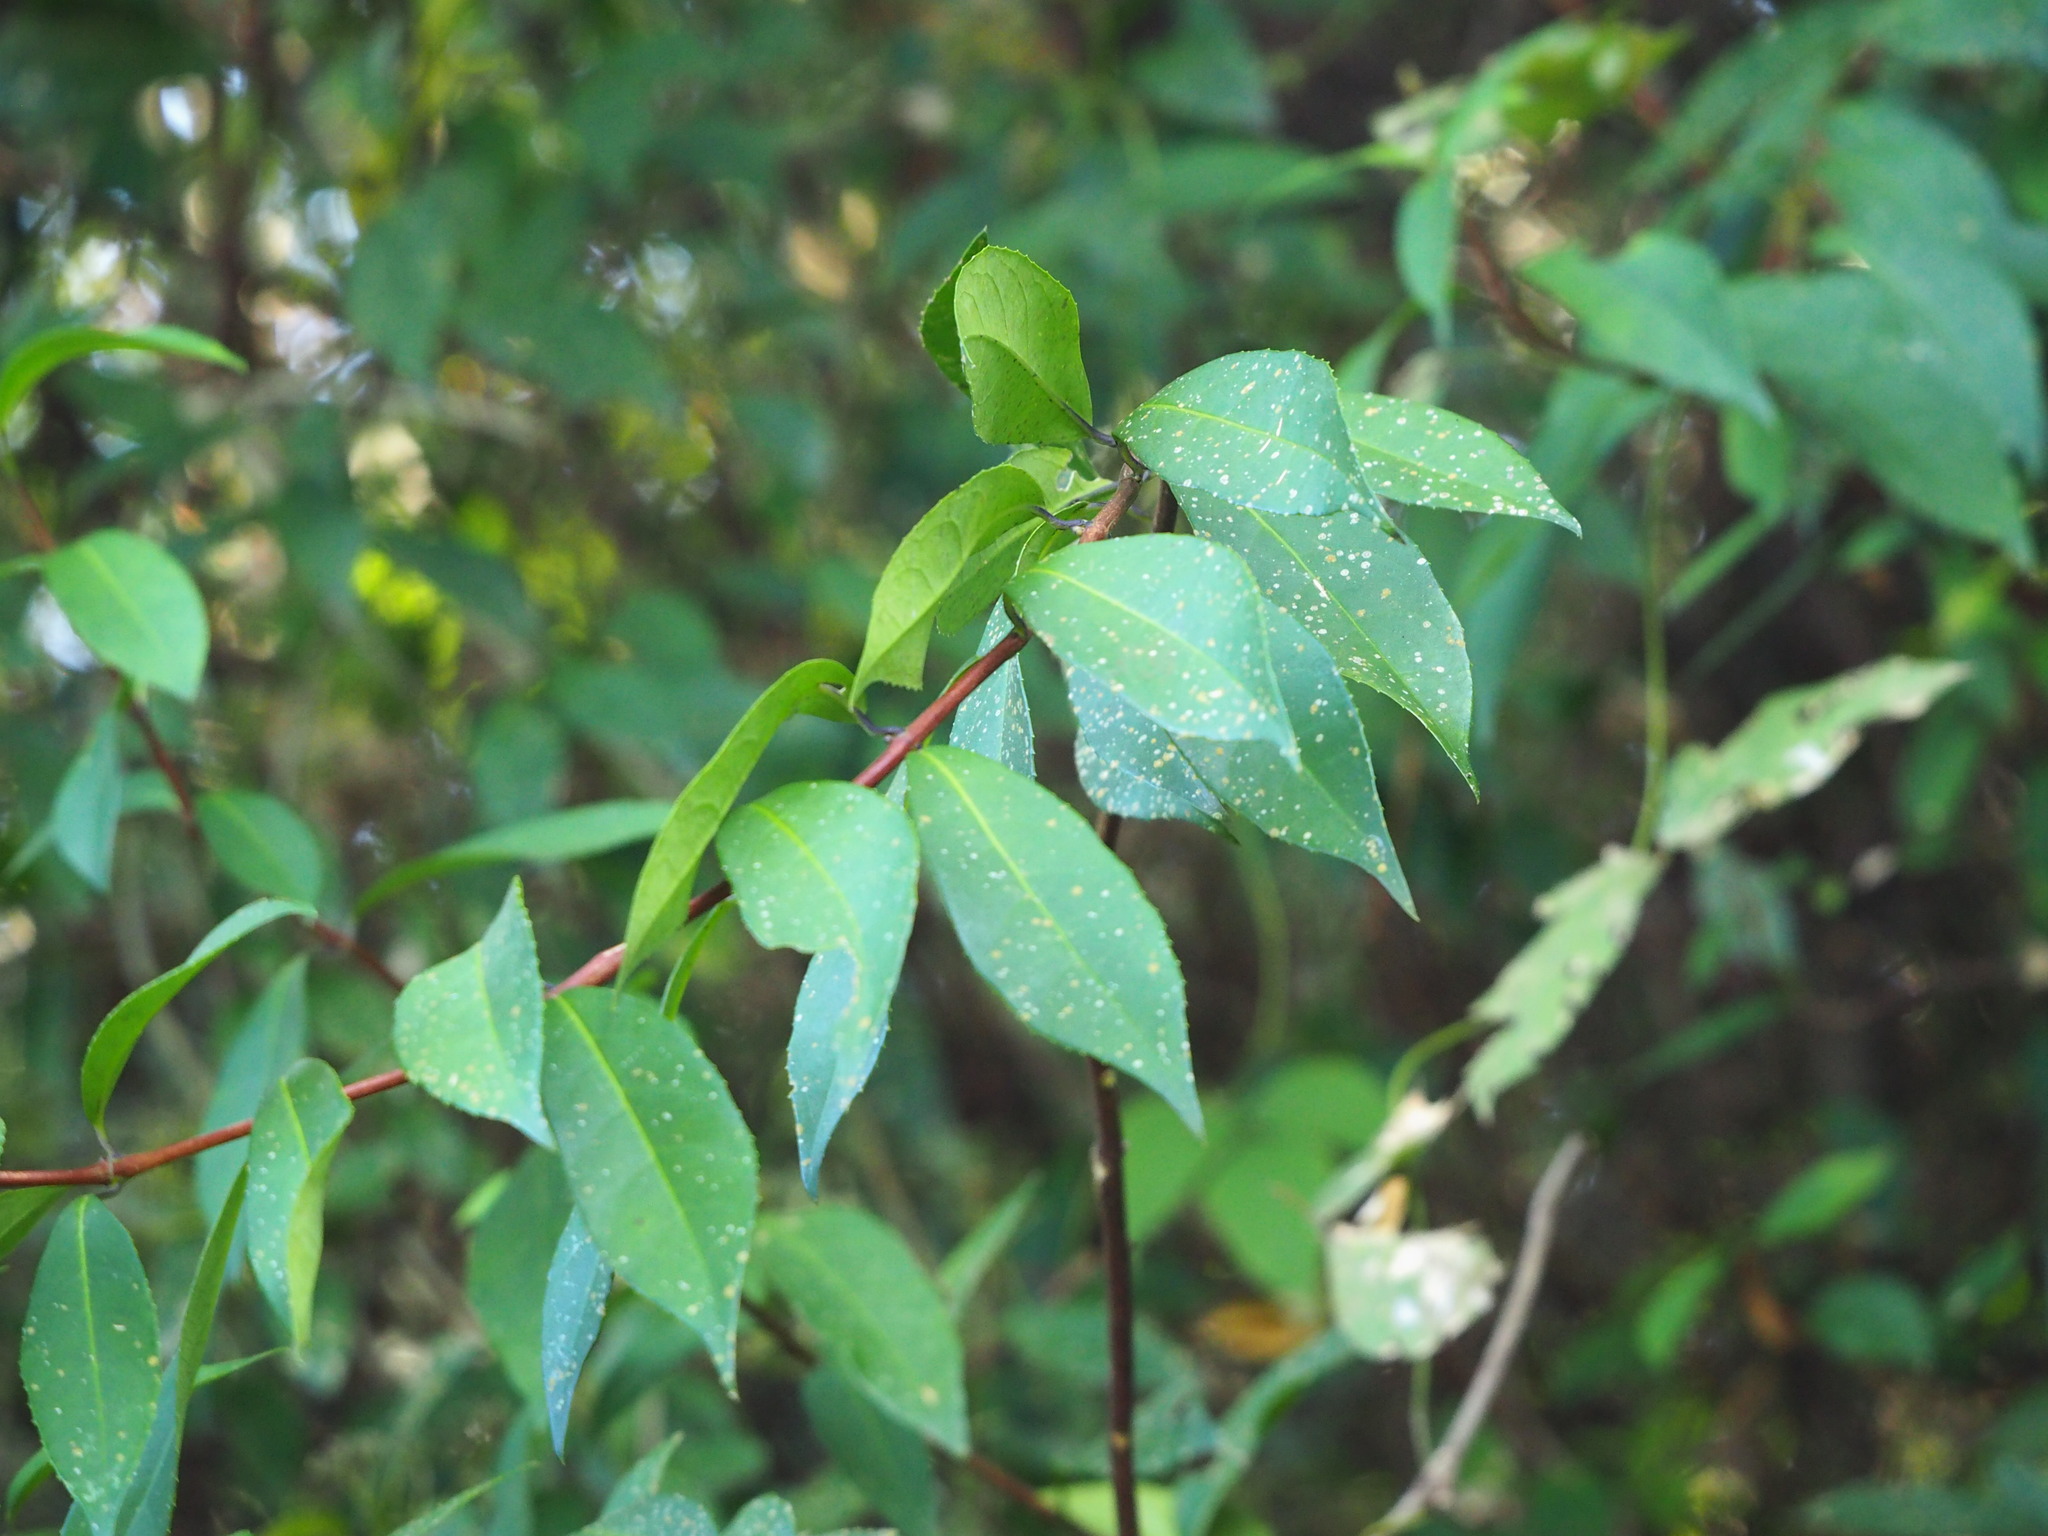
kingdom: Plantae
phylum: Tracheophyta
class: Magnoliopsida
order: Cornales
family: Hydrangeaceae
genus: Hydrangea
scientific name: Hydrangea chinensis
